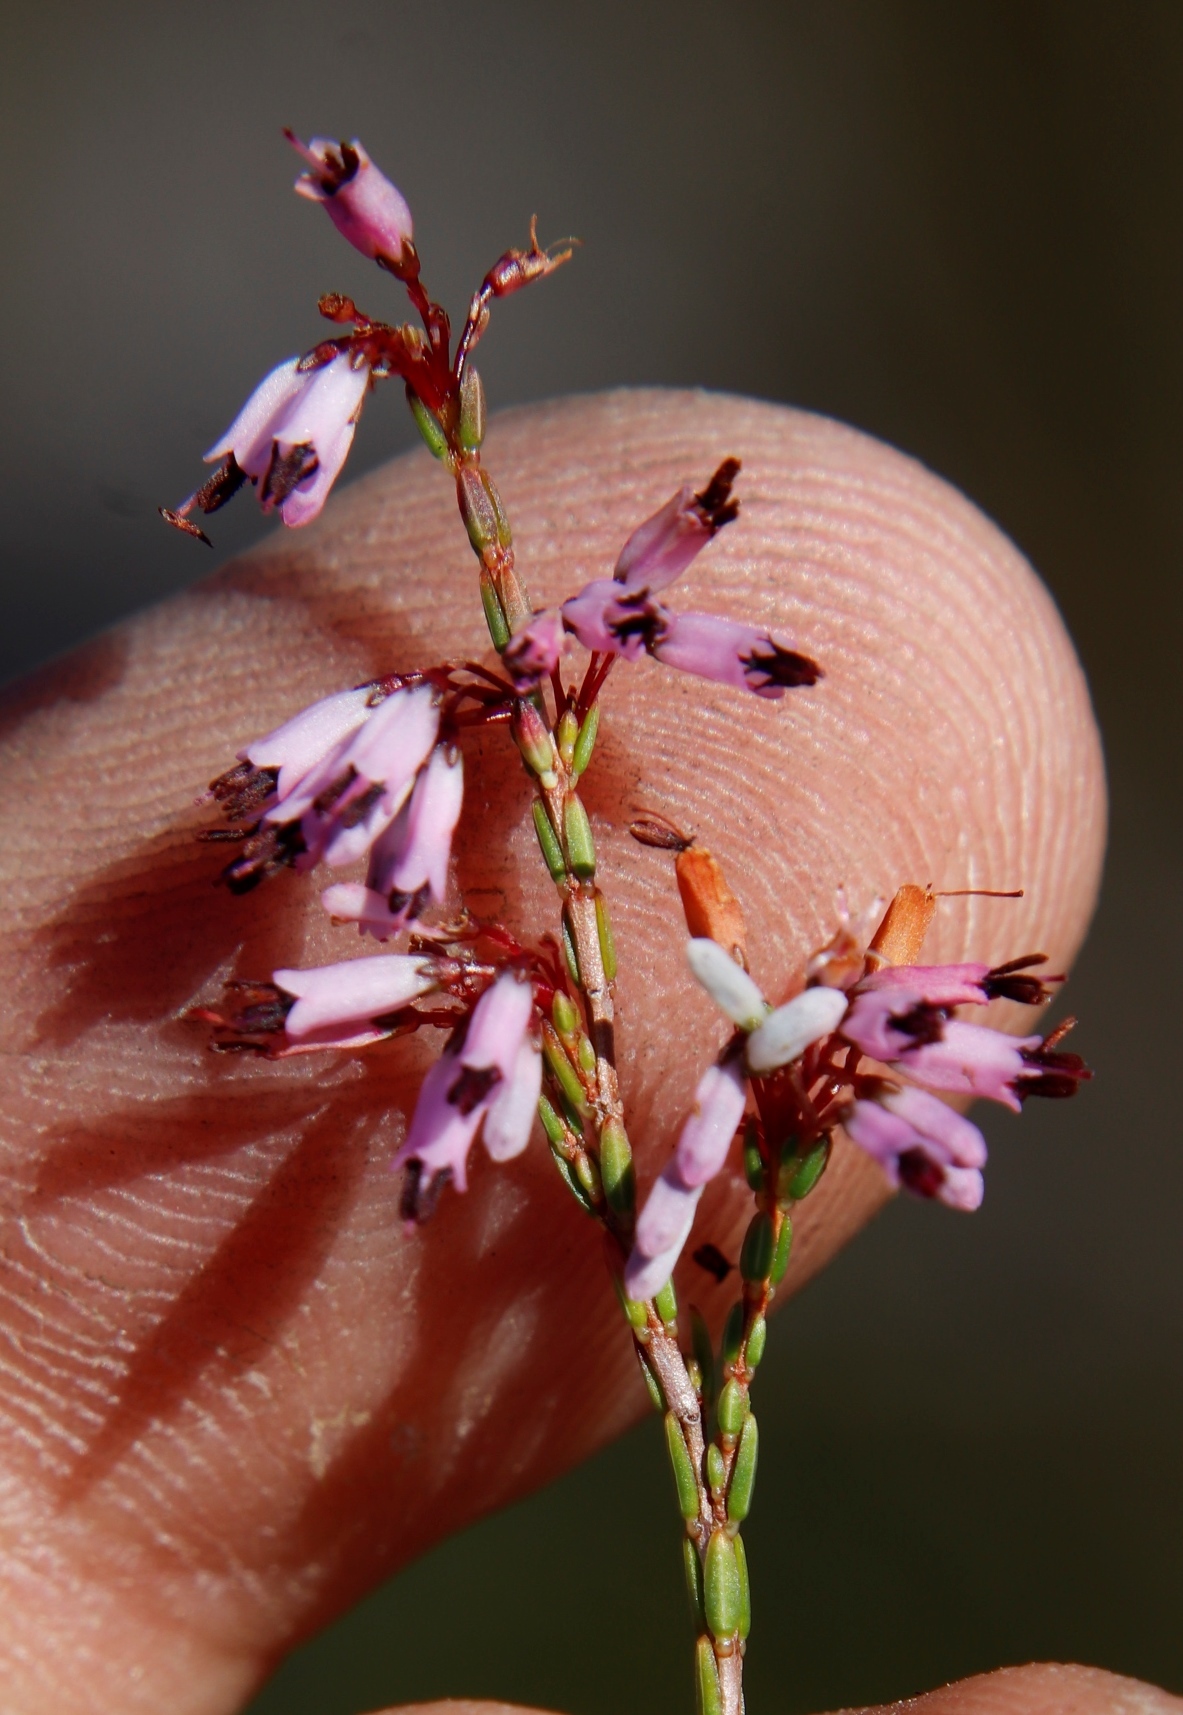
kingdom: Plantae
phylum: Tracheophyta
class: Magnoliopsida
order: Ericales
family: Ericaceae
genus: Erica
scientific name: Erica equisetifolia
